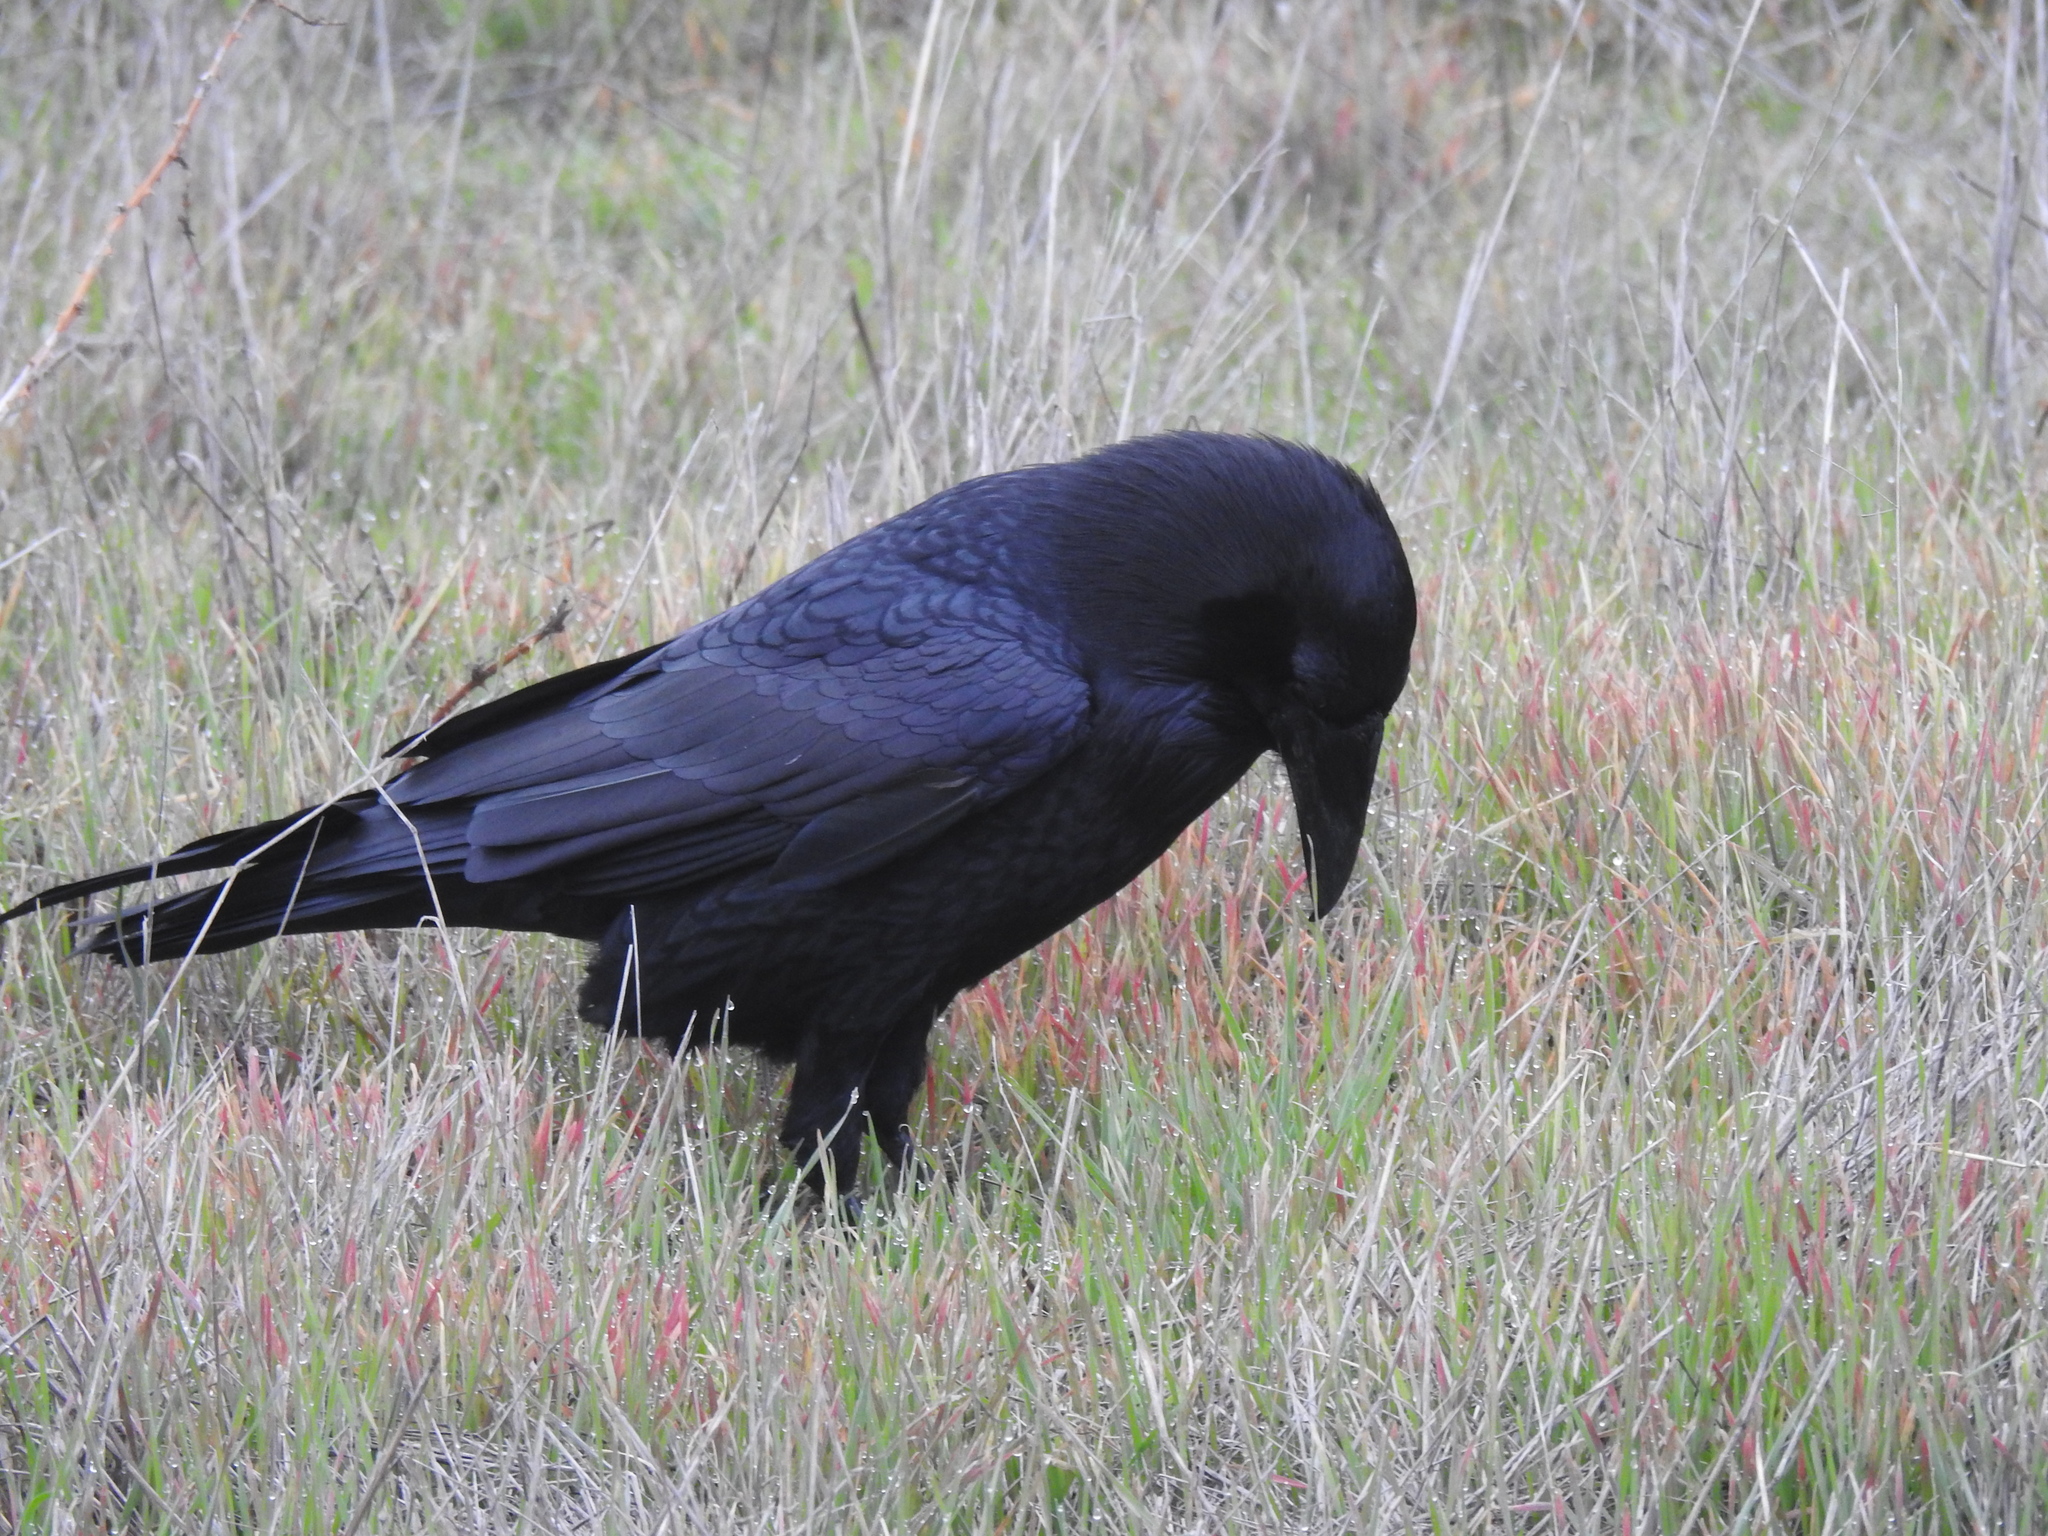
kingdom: Animalia
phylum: Chordata
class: Aves
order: Passeriformes
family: Corvidae
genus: Corvus
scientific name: Corvus corax
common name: Common raven
